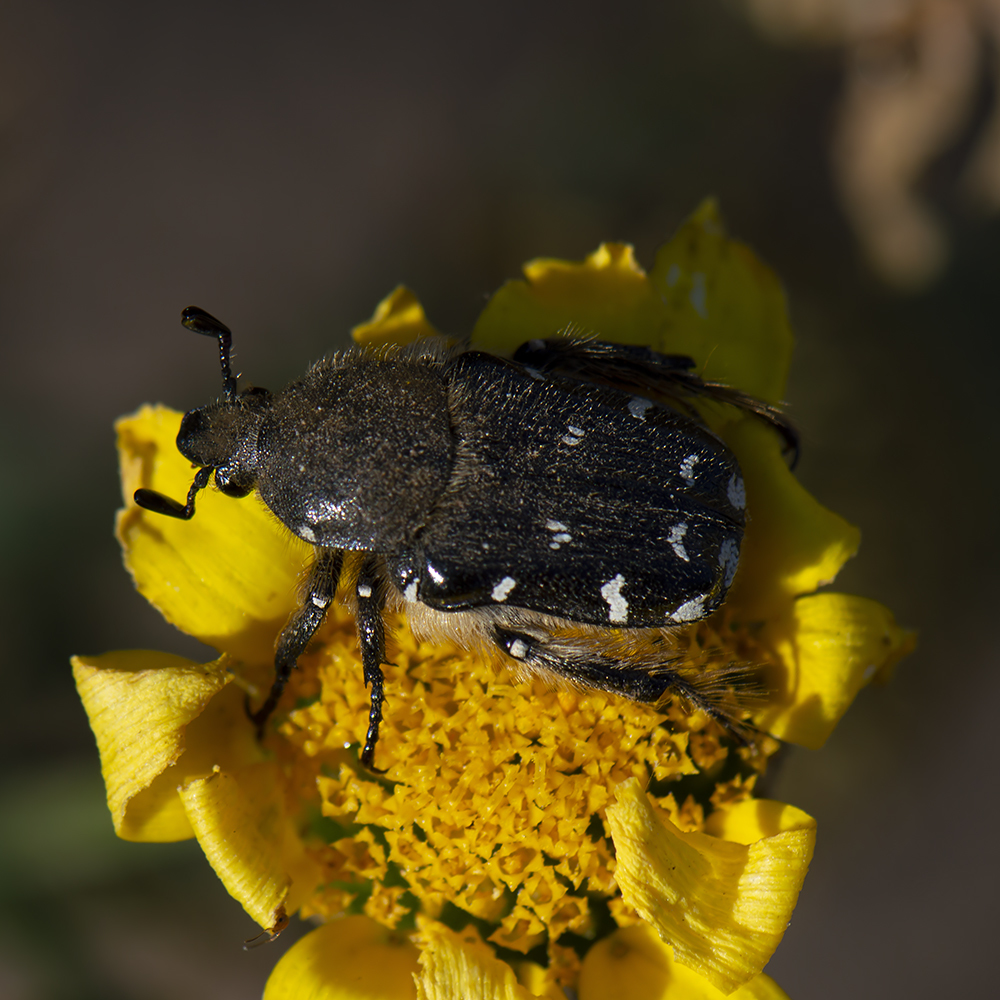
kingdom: Animalia
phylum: Arthropoda
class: Insecta
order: Coleoptera
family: Scarabaeidae
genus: Heterocnemis
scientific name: Heterocnemis graeca
